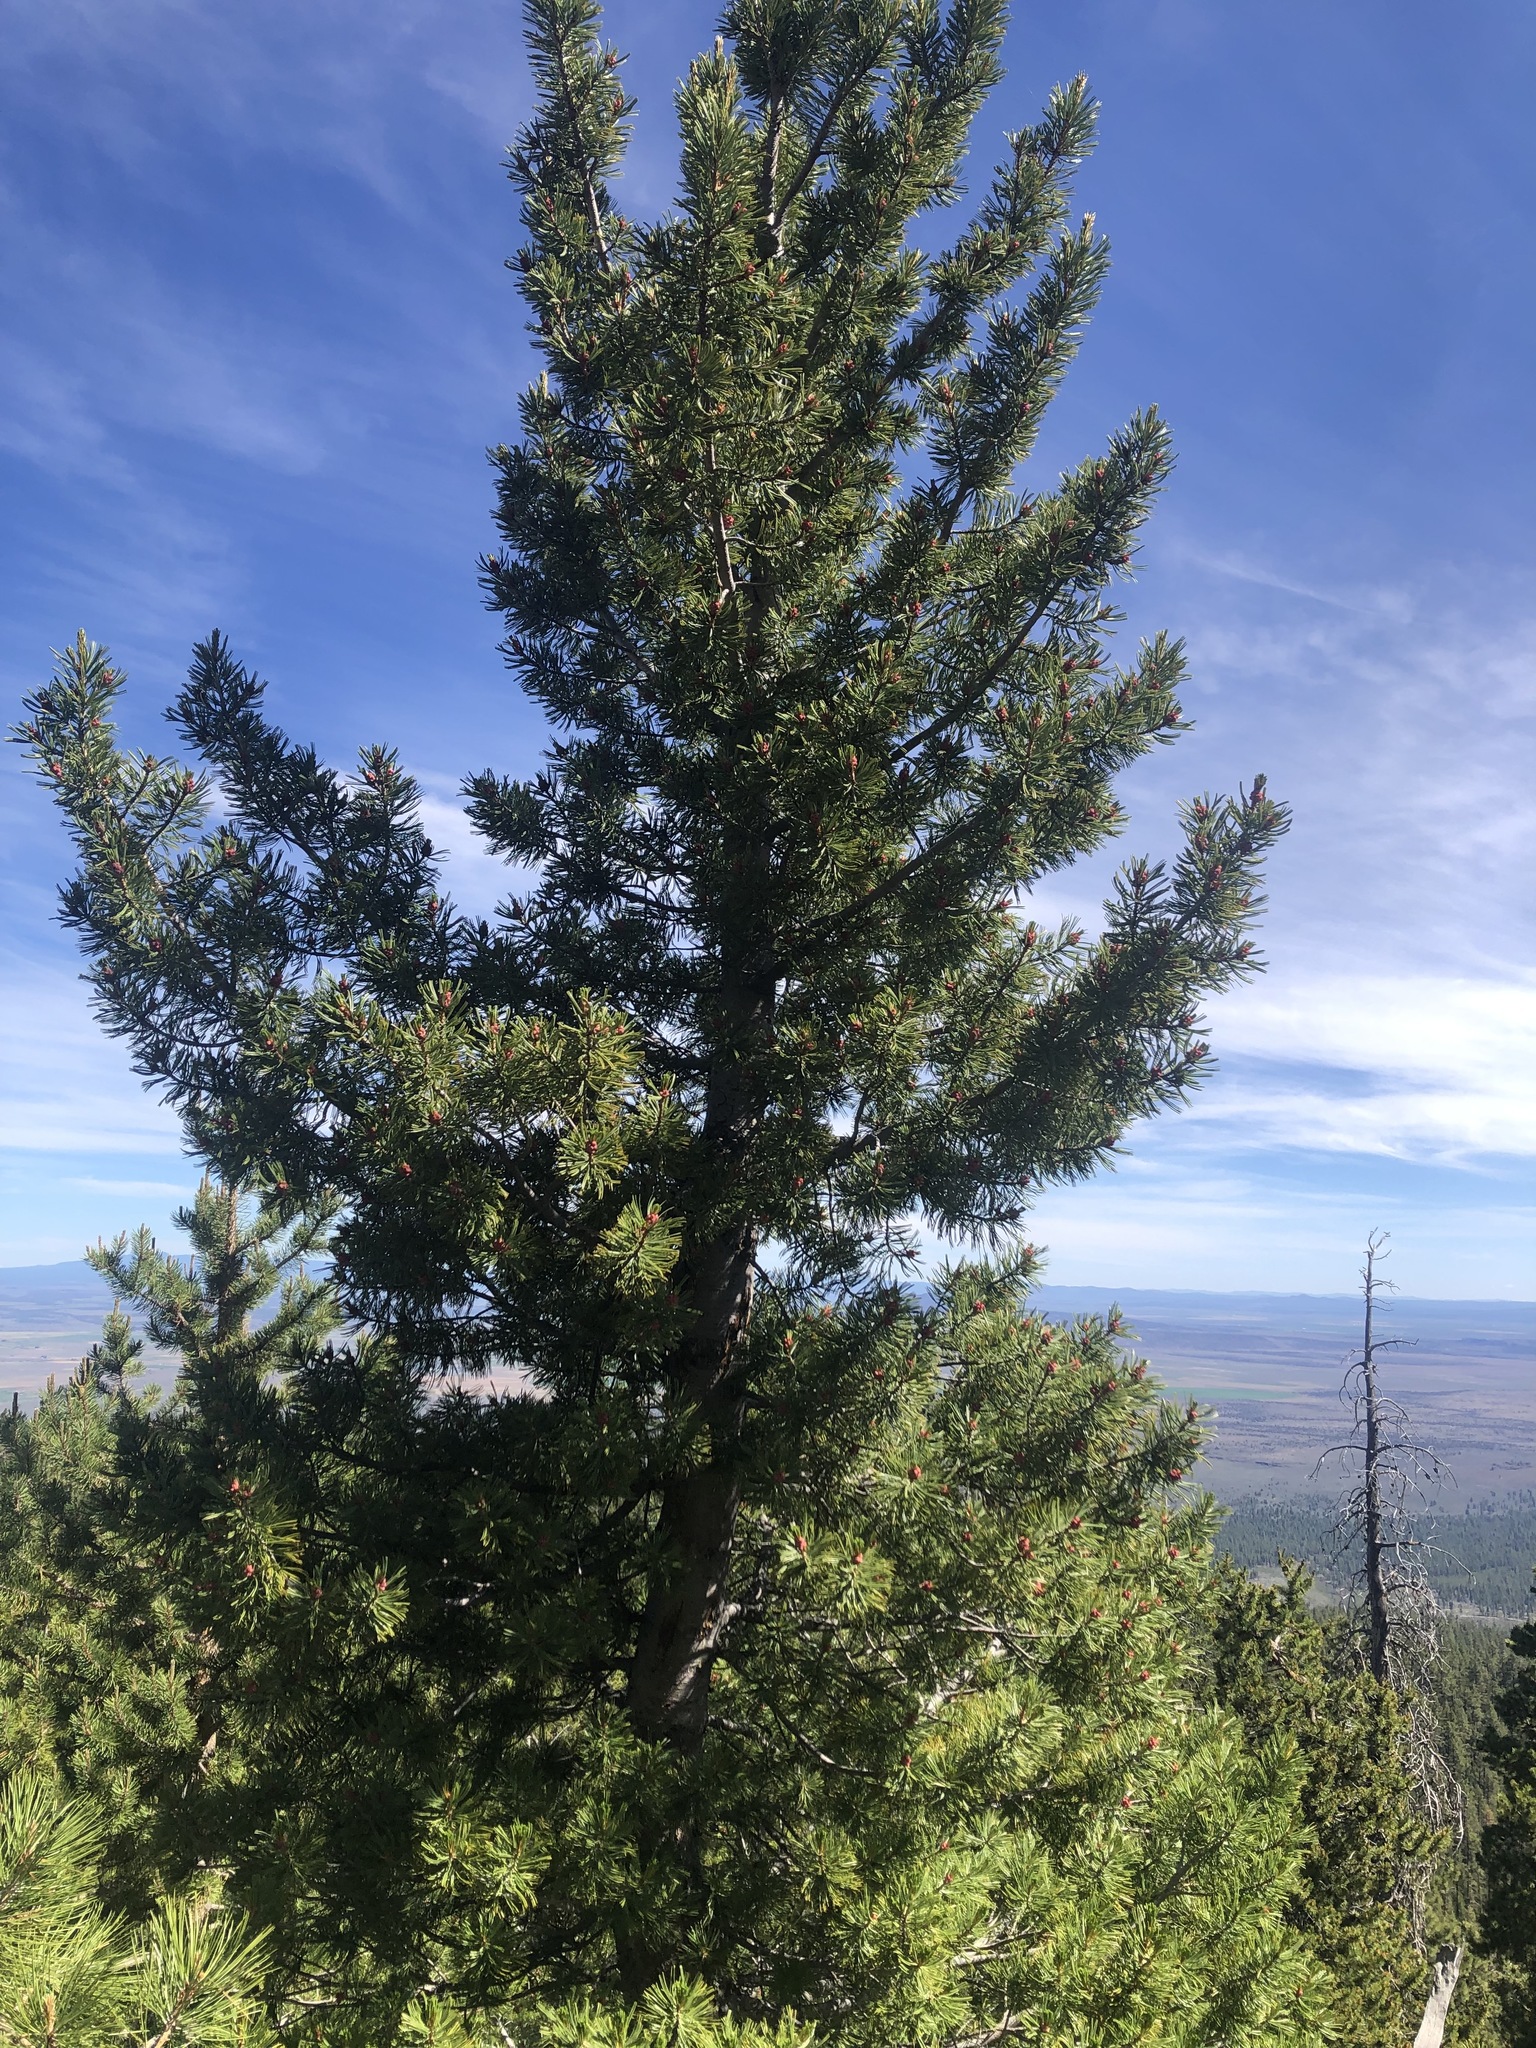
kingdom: Plantae
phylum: Tracheophyta
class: Pinopsida
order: Pinales
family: Pinaceae
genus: Pinus
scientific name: Pinus albicaulis
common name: Whitebark pine
